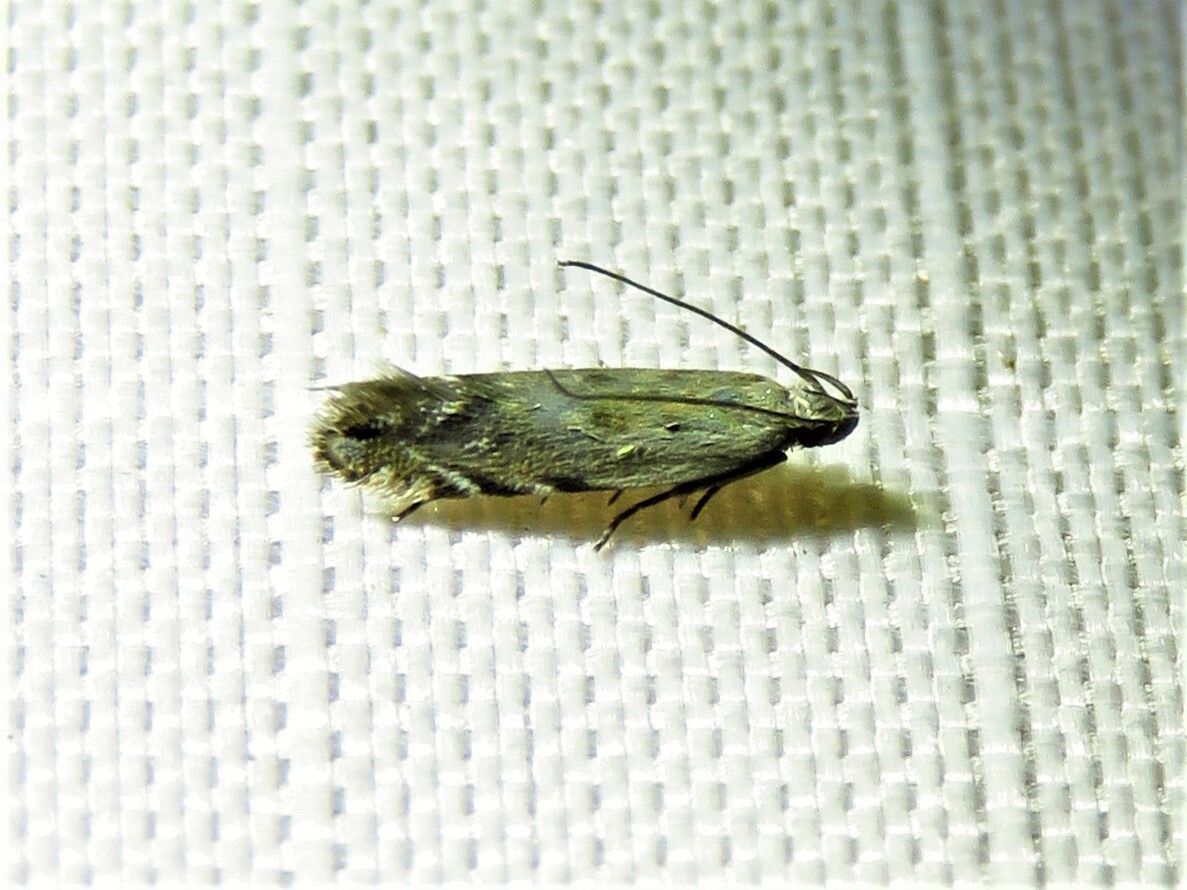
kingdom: Animalia
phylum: Arthropoda
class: Insecta
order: Lepidoptera
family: Gelechiidae
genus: Battaristis
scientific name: Battaristis concinnusella
